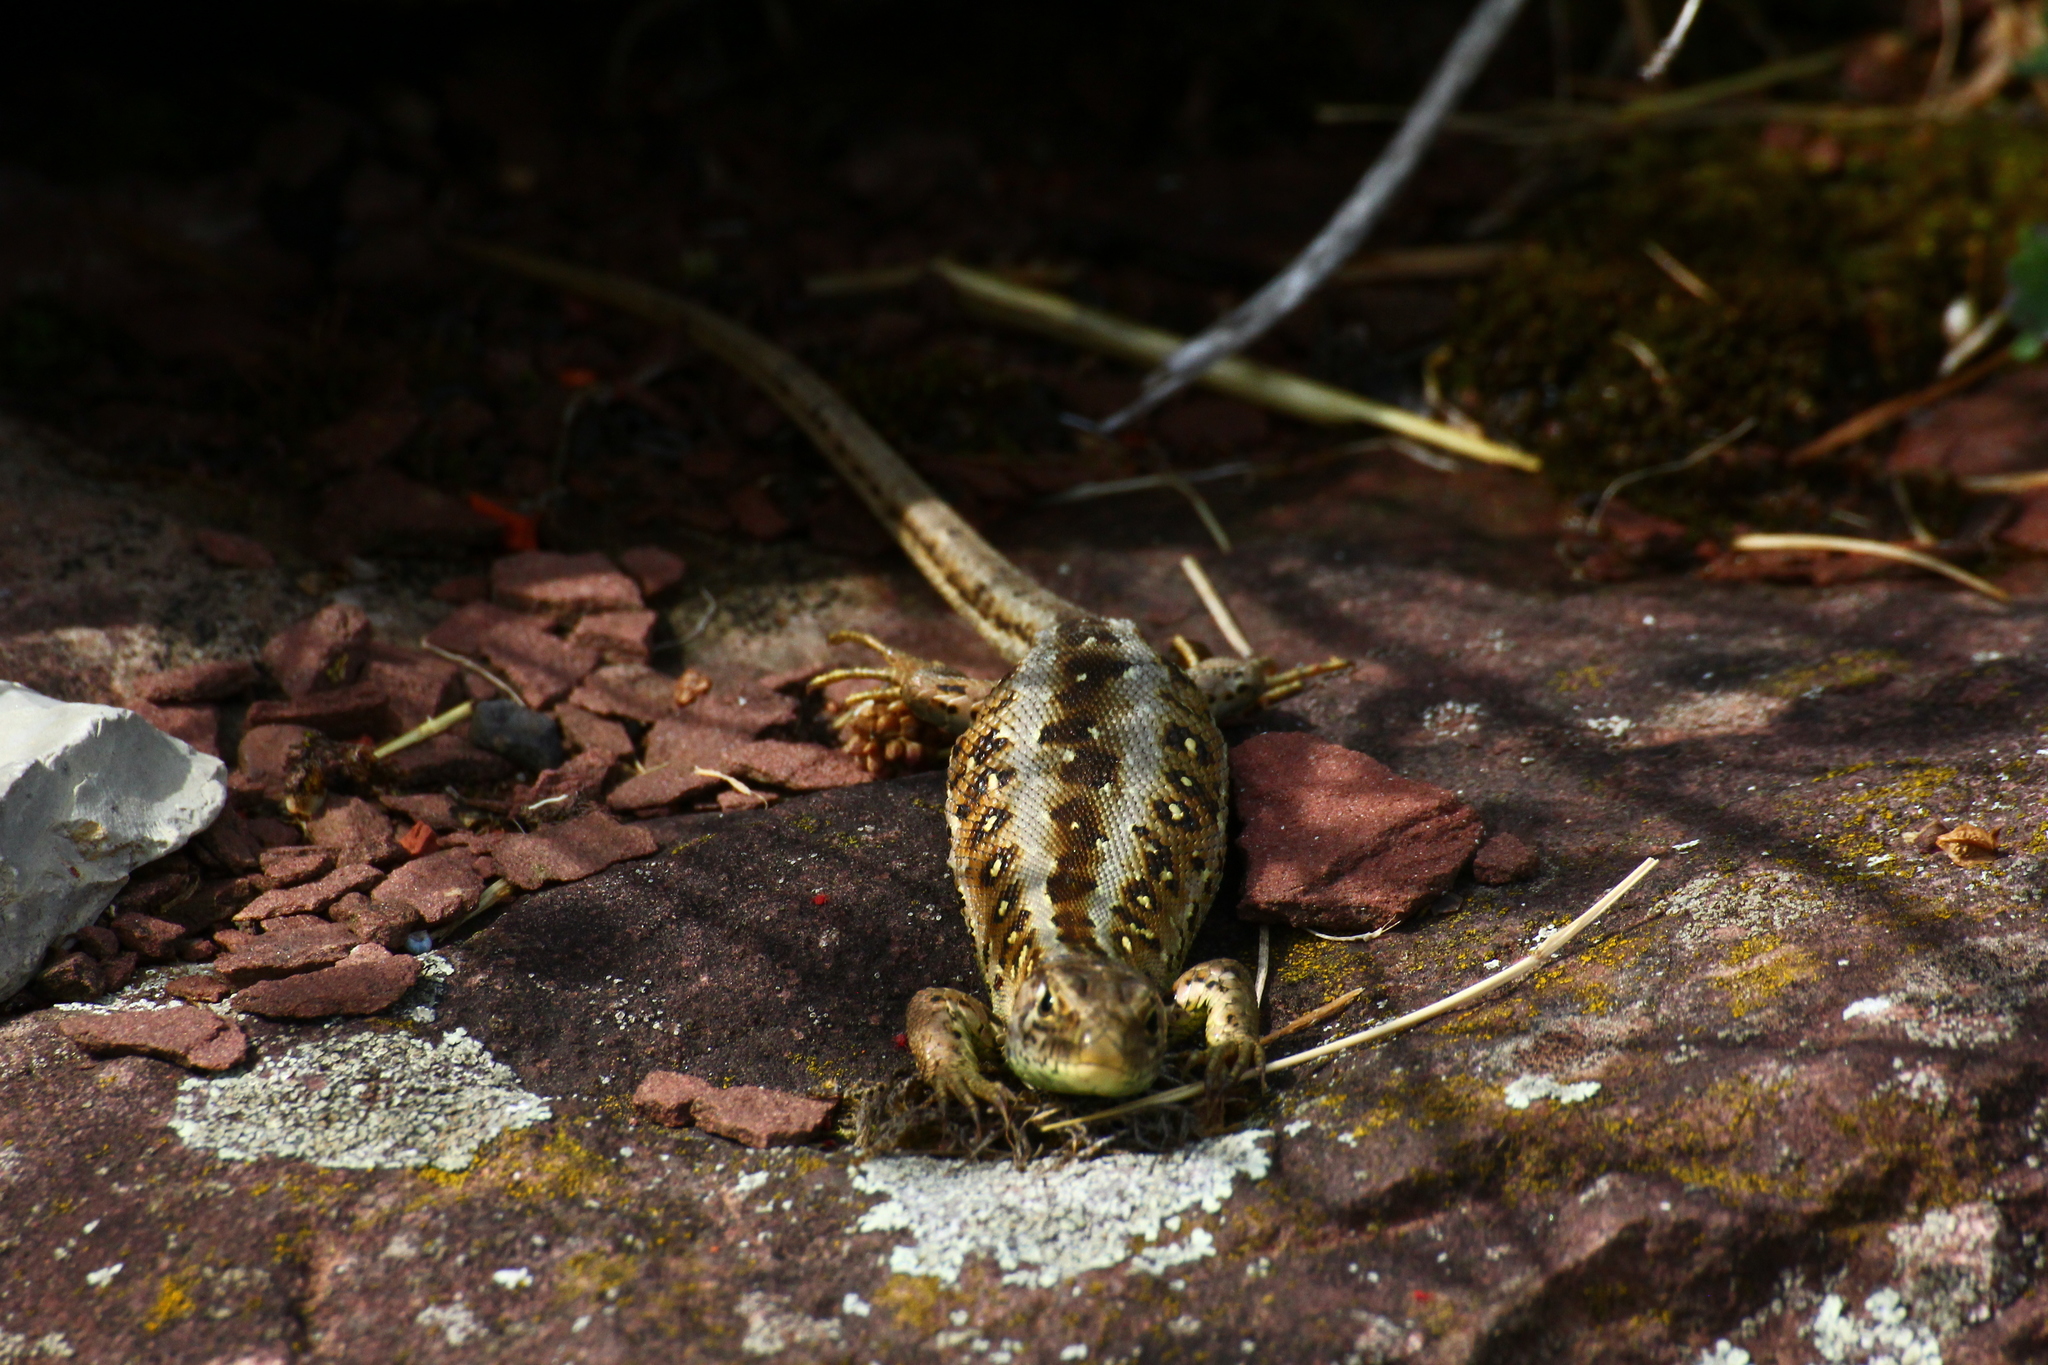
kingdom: Animalia
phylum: Chordata
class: Squamata
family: Lacertidae
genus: Lacerta
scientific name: Lacerta agilis
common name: Sand lizard
